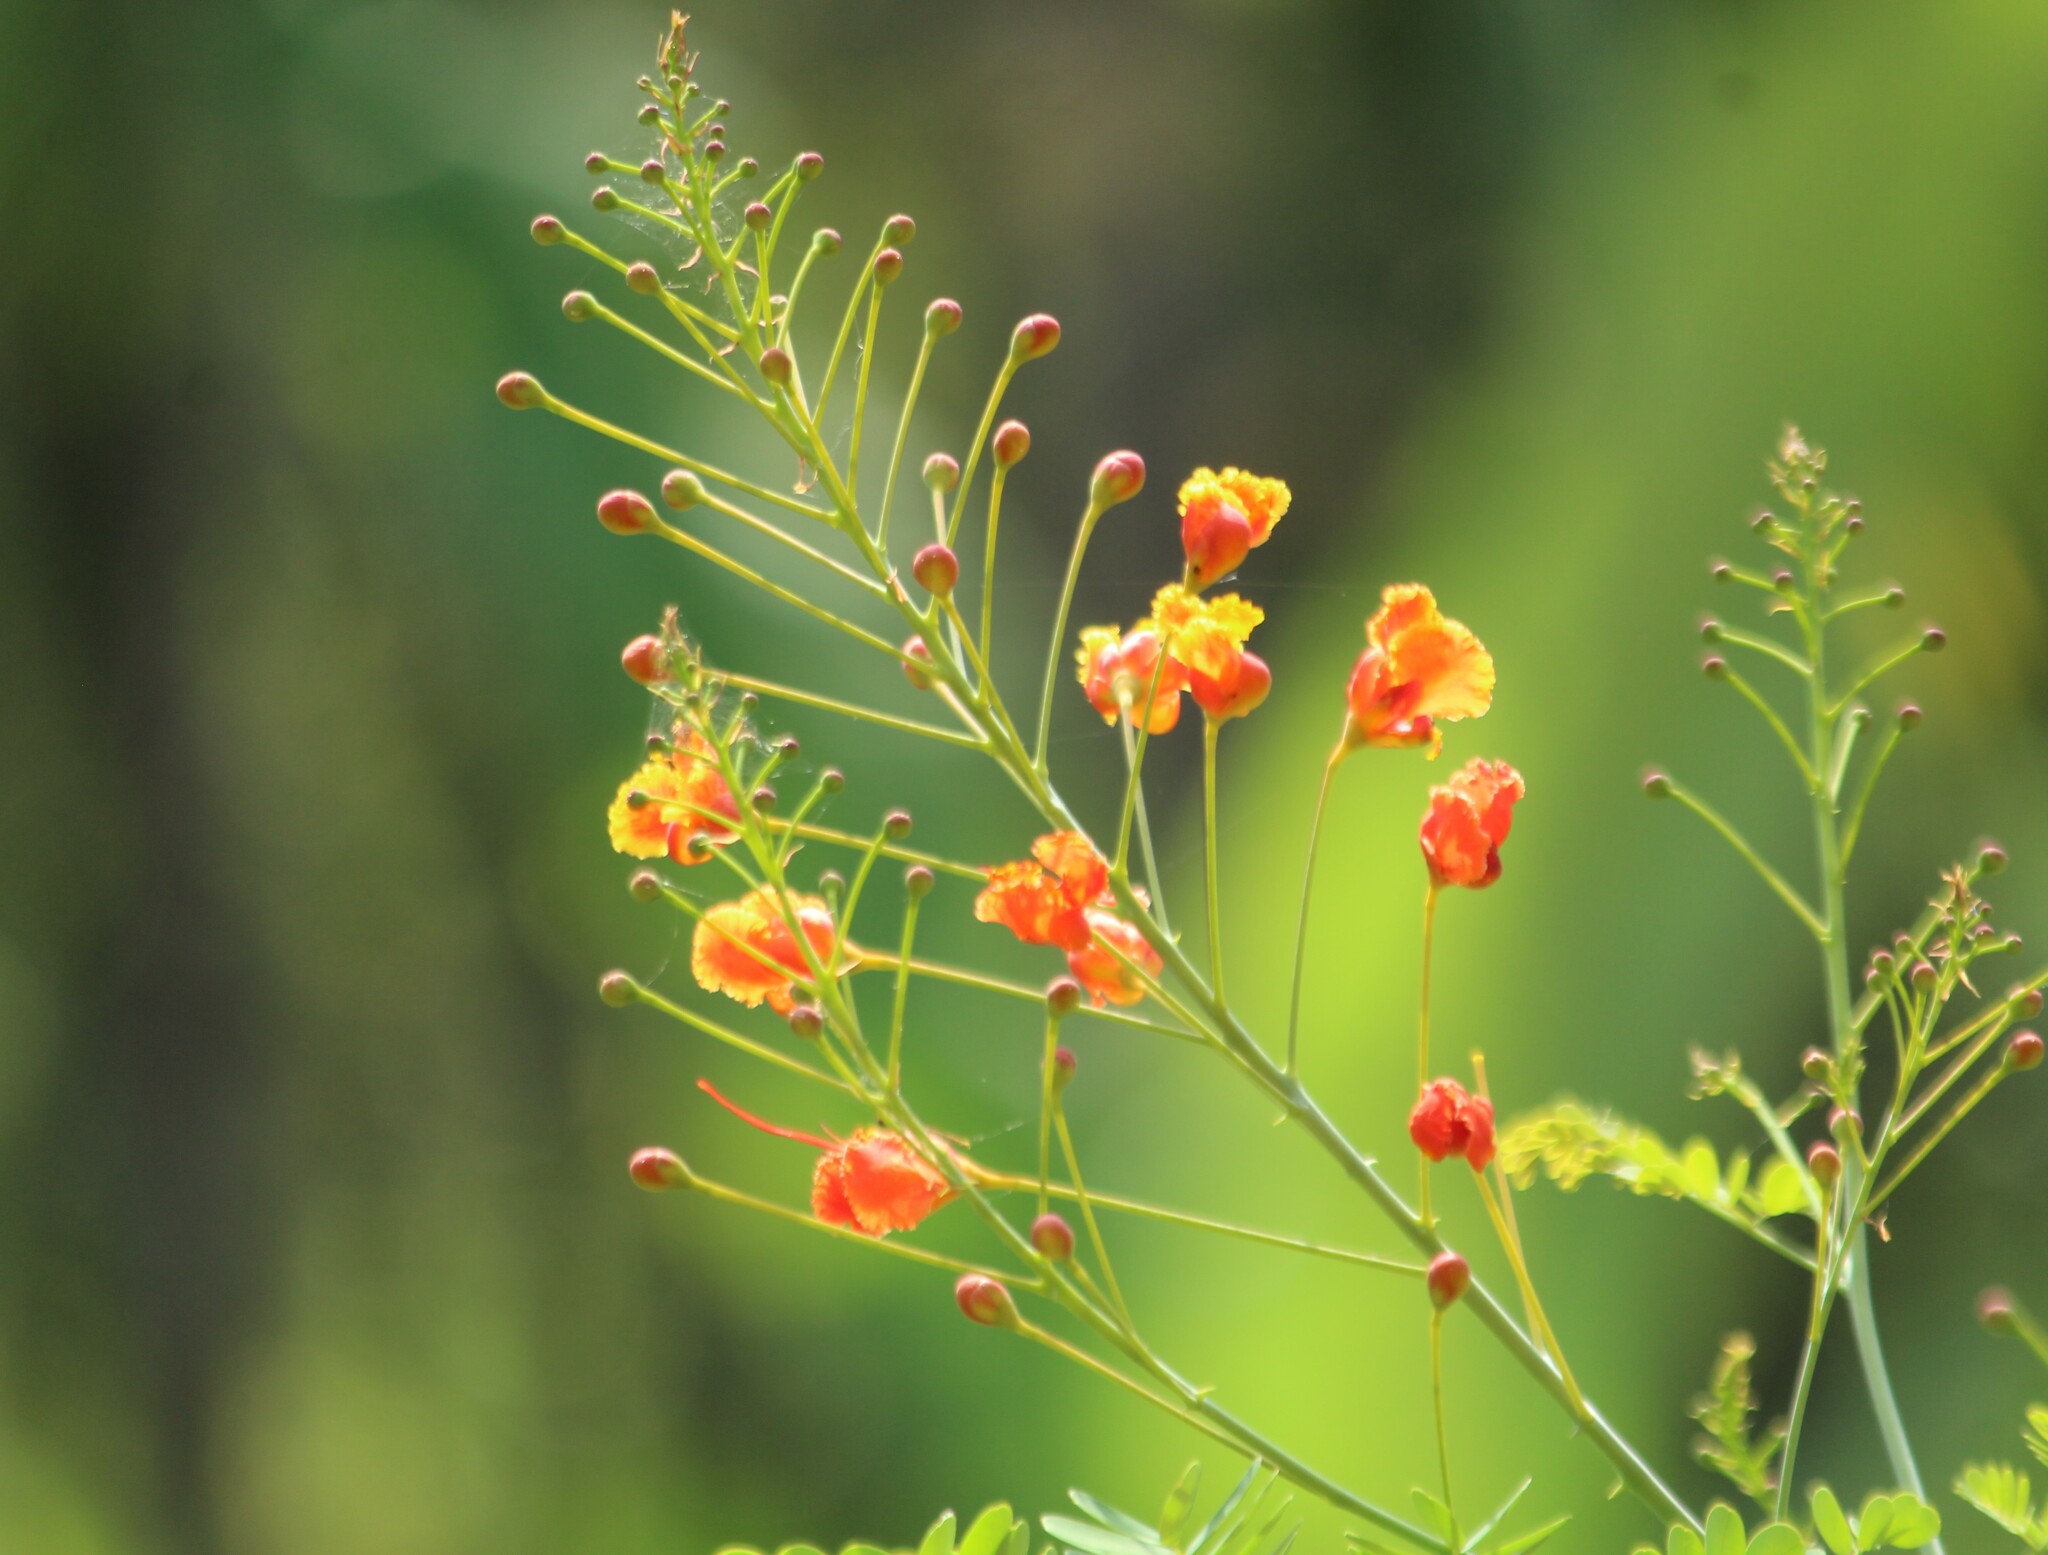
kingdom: Plantae
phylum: Tracheophyta
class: Magnoliopsida
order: Fabales
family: Fabaceae
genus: Caesalpinia
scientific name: Caesalpinia pulcherrima
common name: Pride-of-barbados
